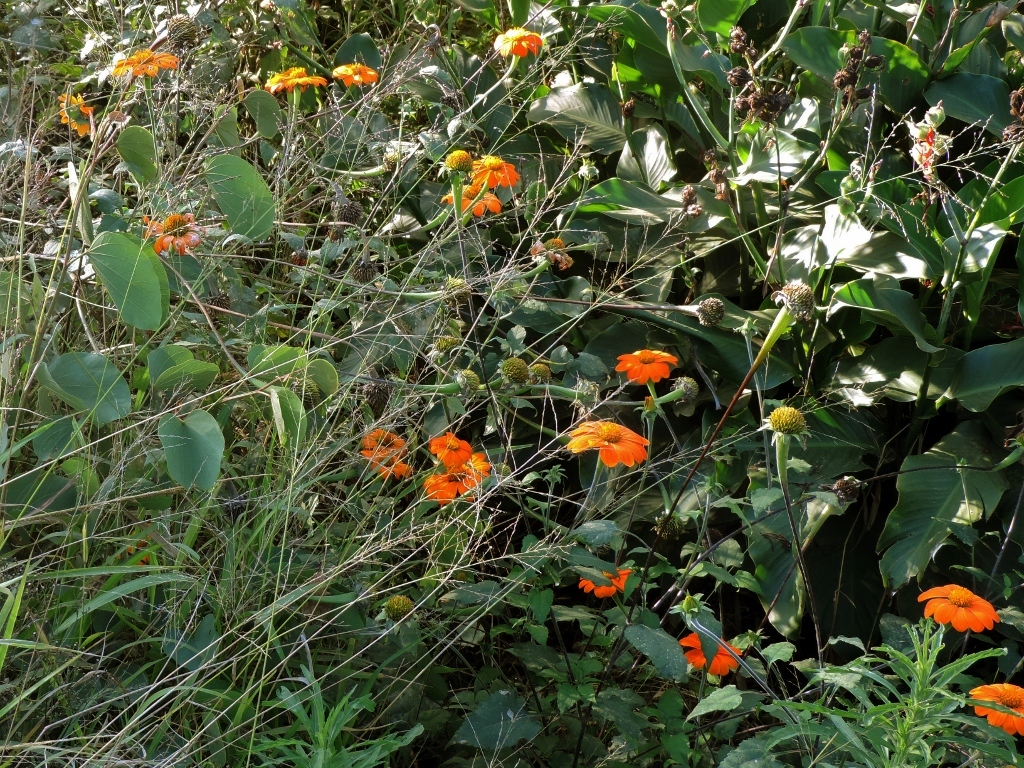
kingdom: Plantae
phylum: Tracheophyta
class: Magnoliopsida
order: Asterales
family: Asteraceae
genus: Tithonia
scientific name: Tithonia rotundifolia
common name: Sunflower
